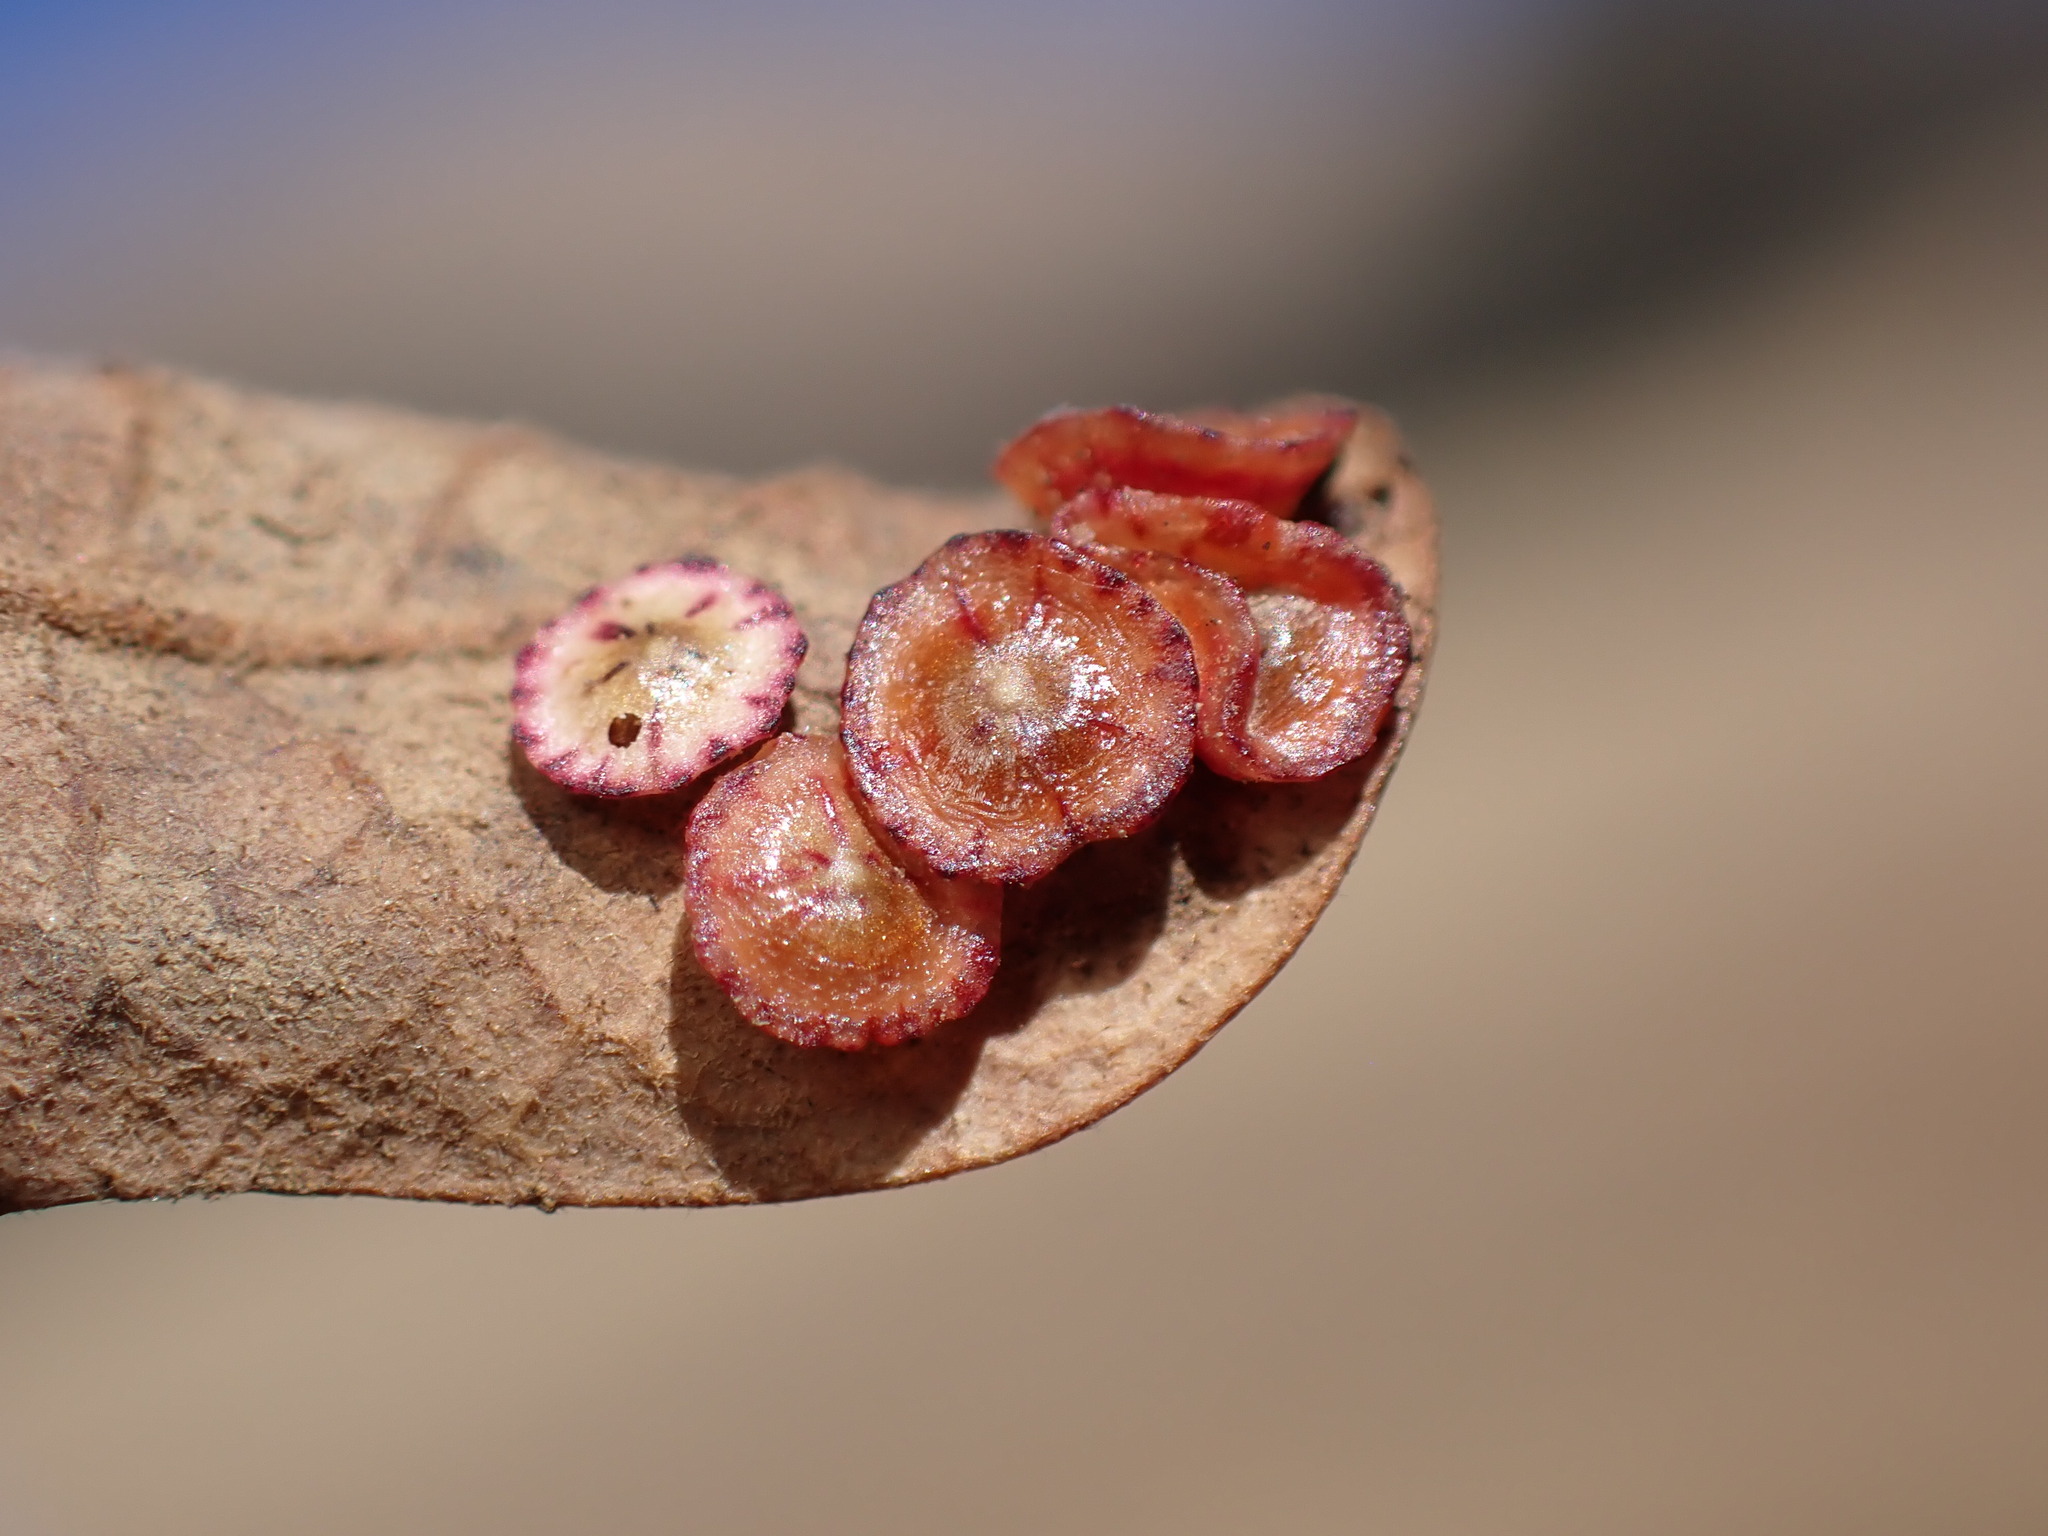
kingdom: Animalia
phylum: Arthropoda
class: Insecta
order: Hymenoptera
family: Cynipidae
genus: Andricus
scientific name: Andricus
